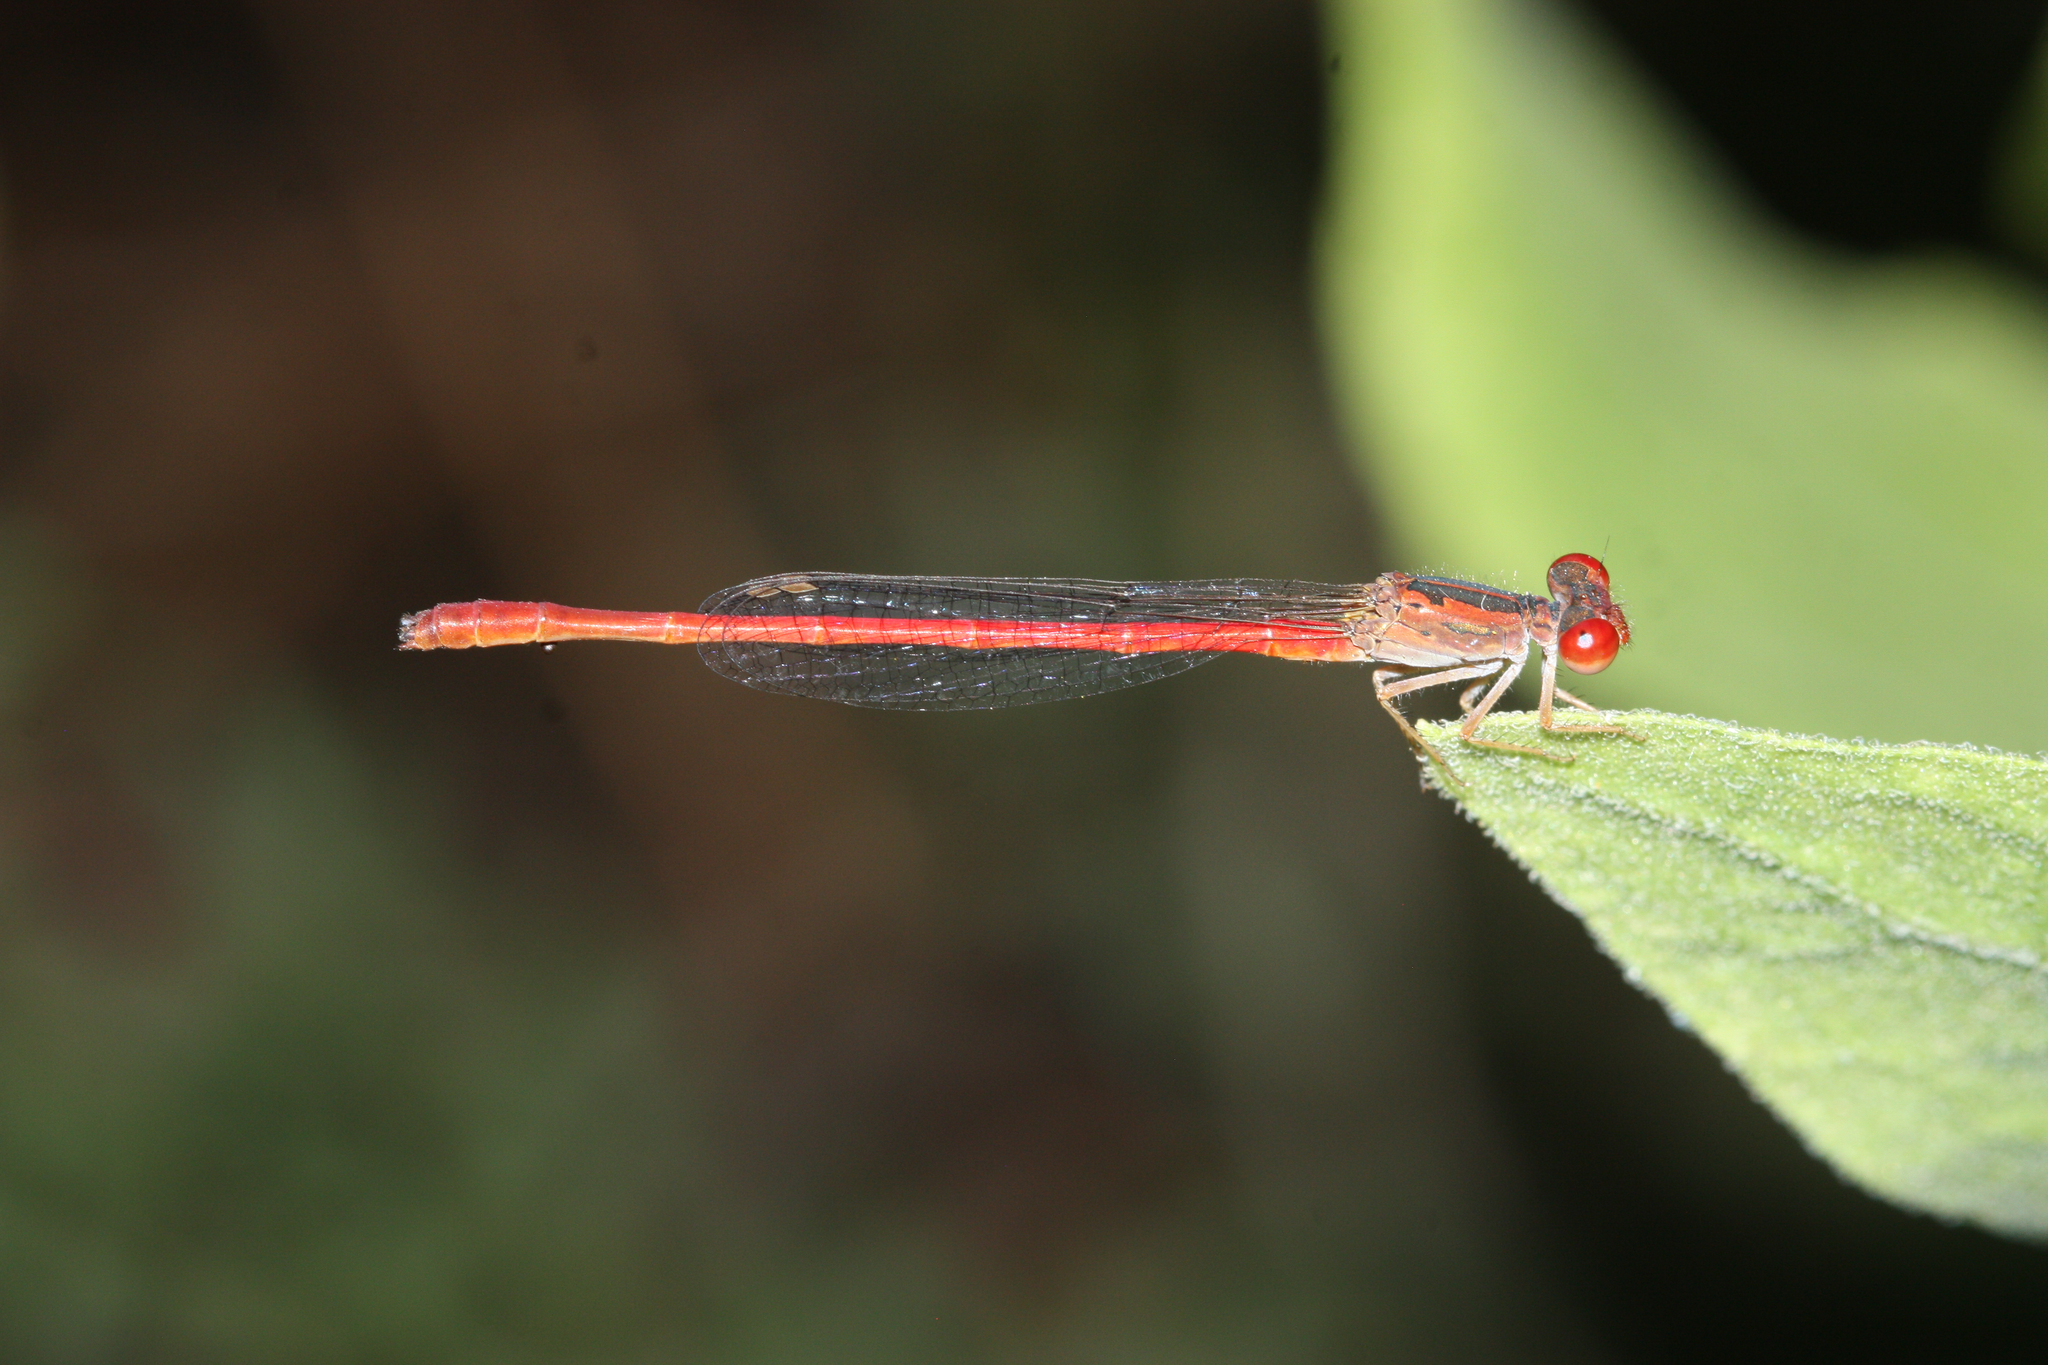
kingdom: Animalia
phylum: Arthropoda
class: Insecta
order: Odonata
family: Coenagrionidae
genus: Telebasis
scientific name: Telebasis salva
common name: Desert firetail
